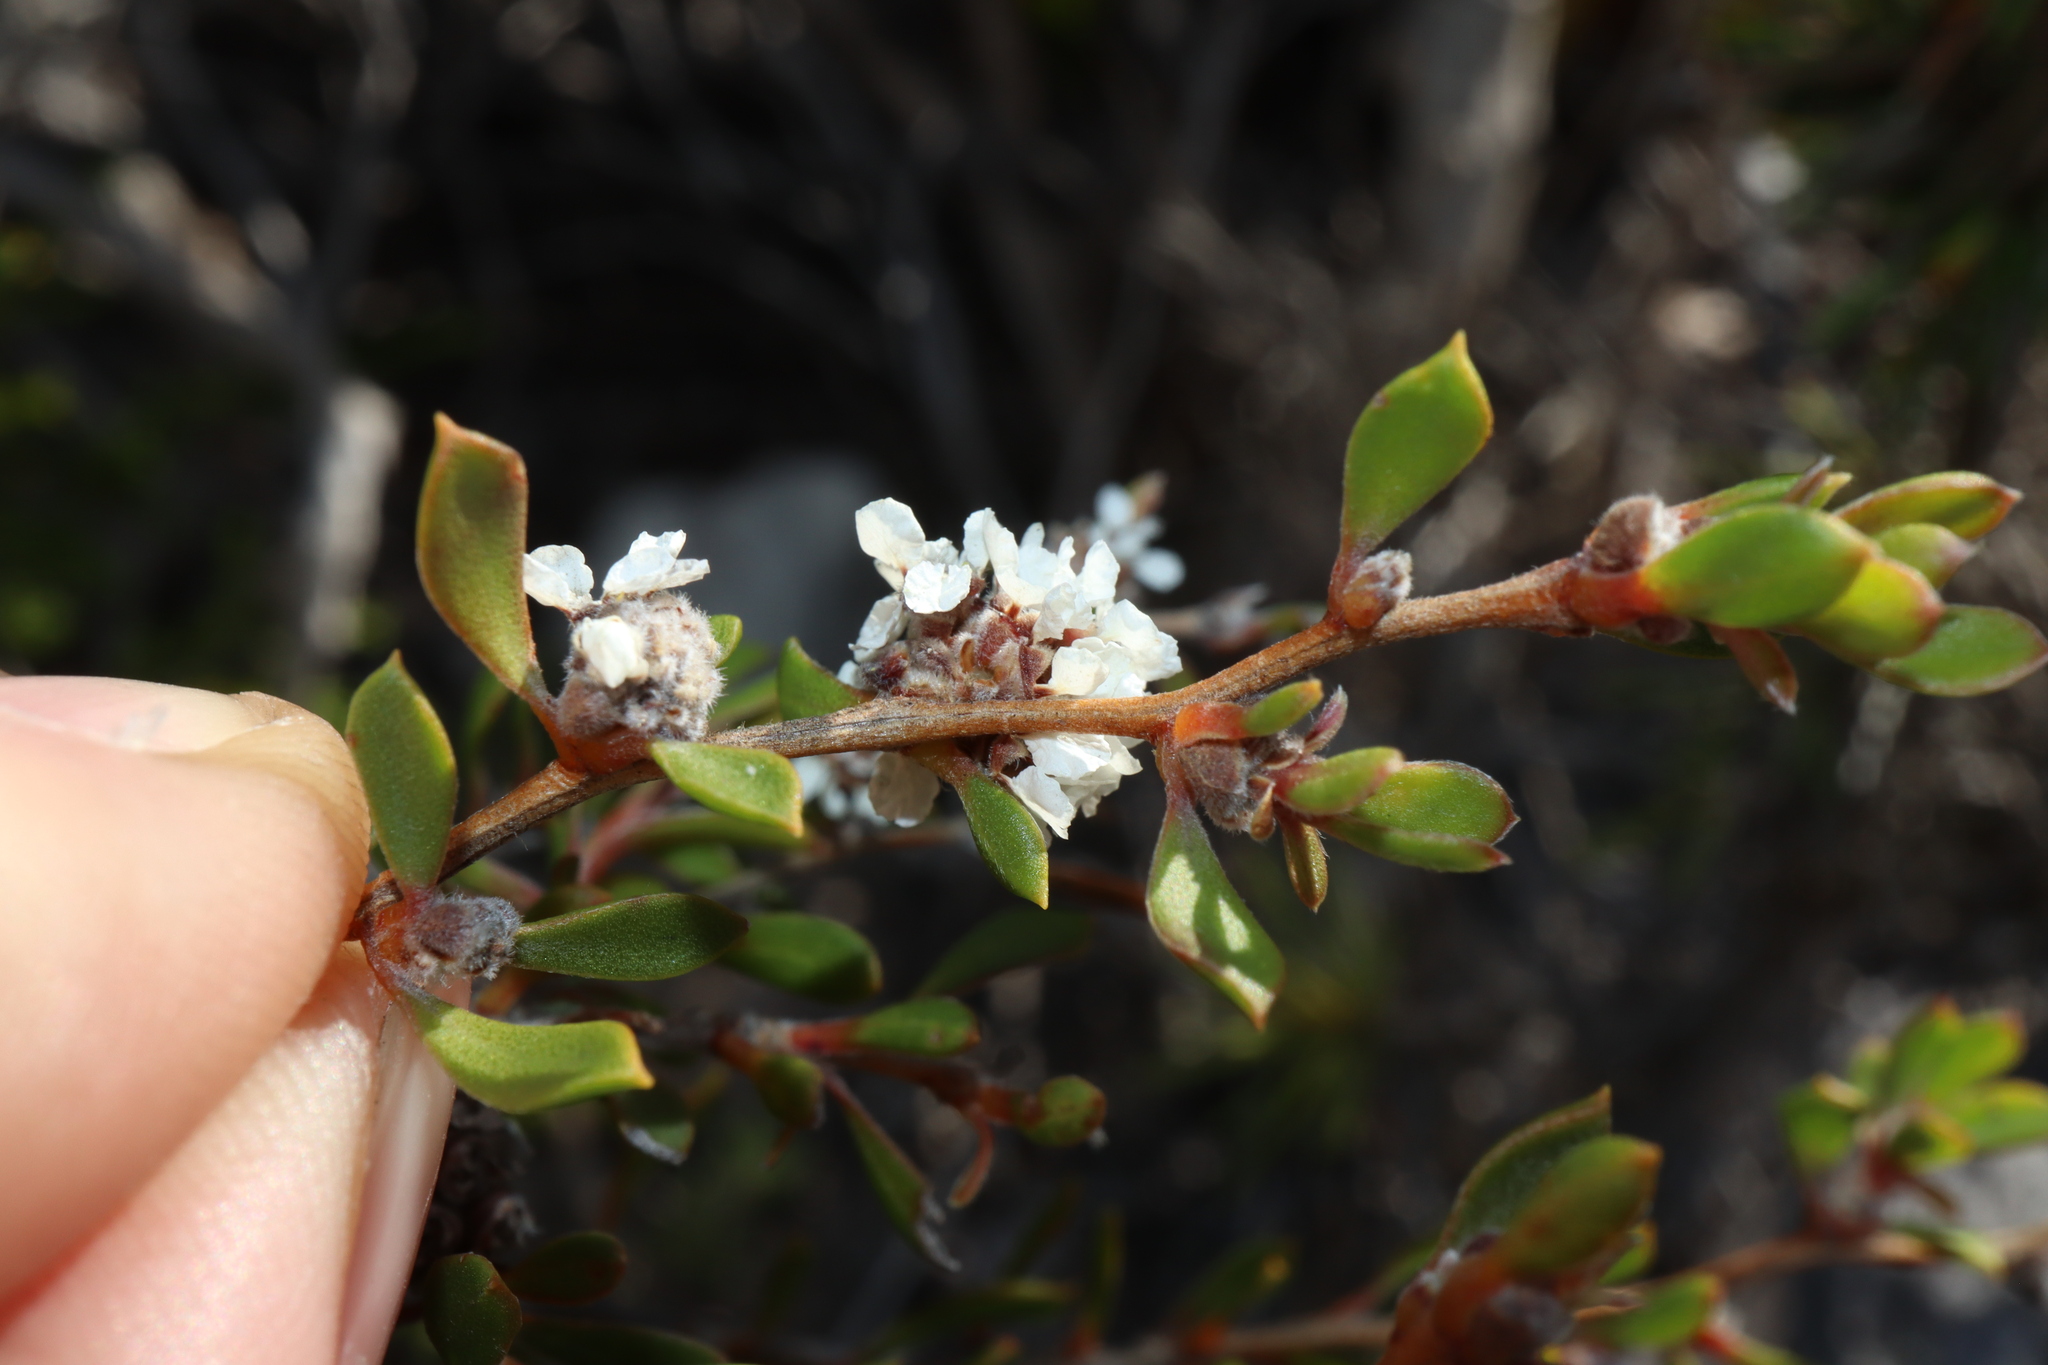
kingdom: Plantae
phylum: Tracheophyta
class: Magnoliopsida
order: Myrtales
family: Myrtaceae
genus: Taxandria
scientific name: Taxandria conspicua
